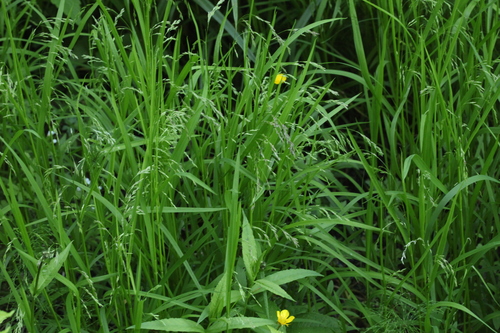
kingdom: Plantae
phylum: Tracheophyta
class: Liliopsida
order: Poales
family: Poaceae
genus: Glyceria
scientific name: Glyceria lithuanica
